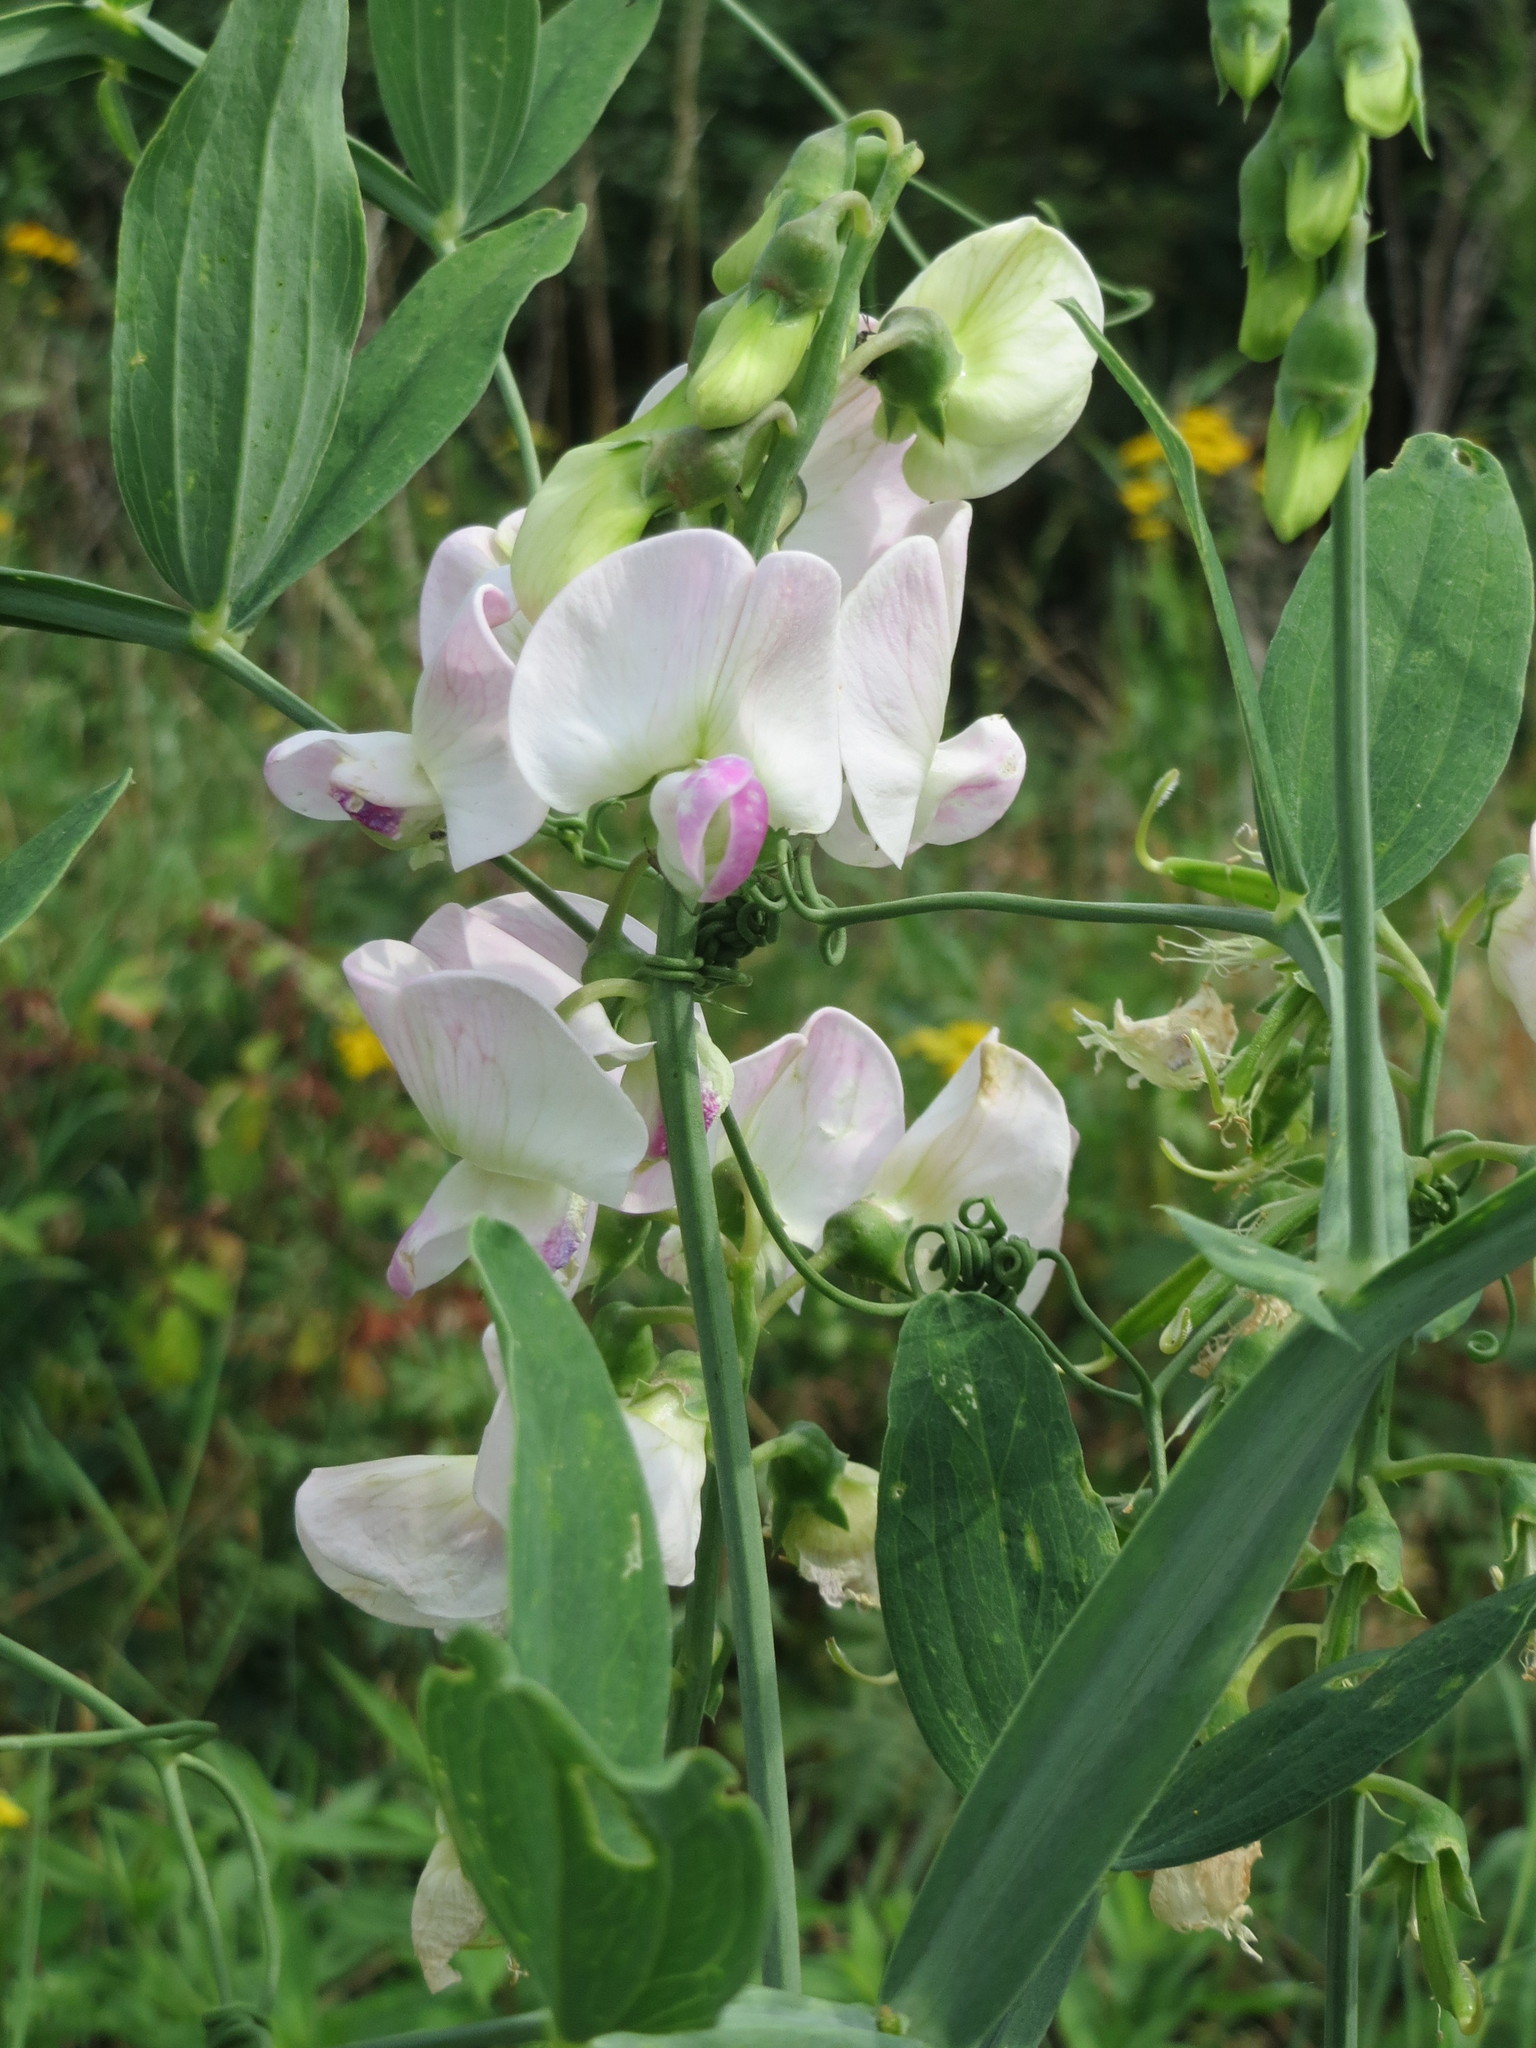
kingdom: Plantae
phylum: Tracheophyta
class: Magnoliopsida
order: Fabales
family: Fabaceae
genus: Lathyrus
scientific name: Lathyrus latifolius
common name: Perennial pea
